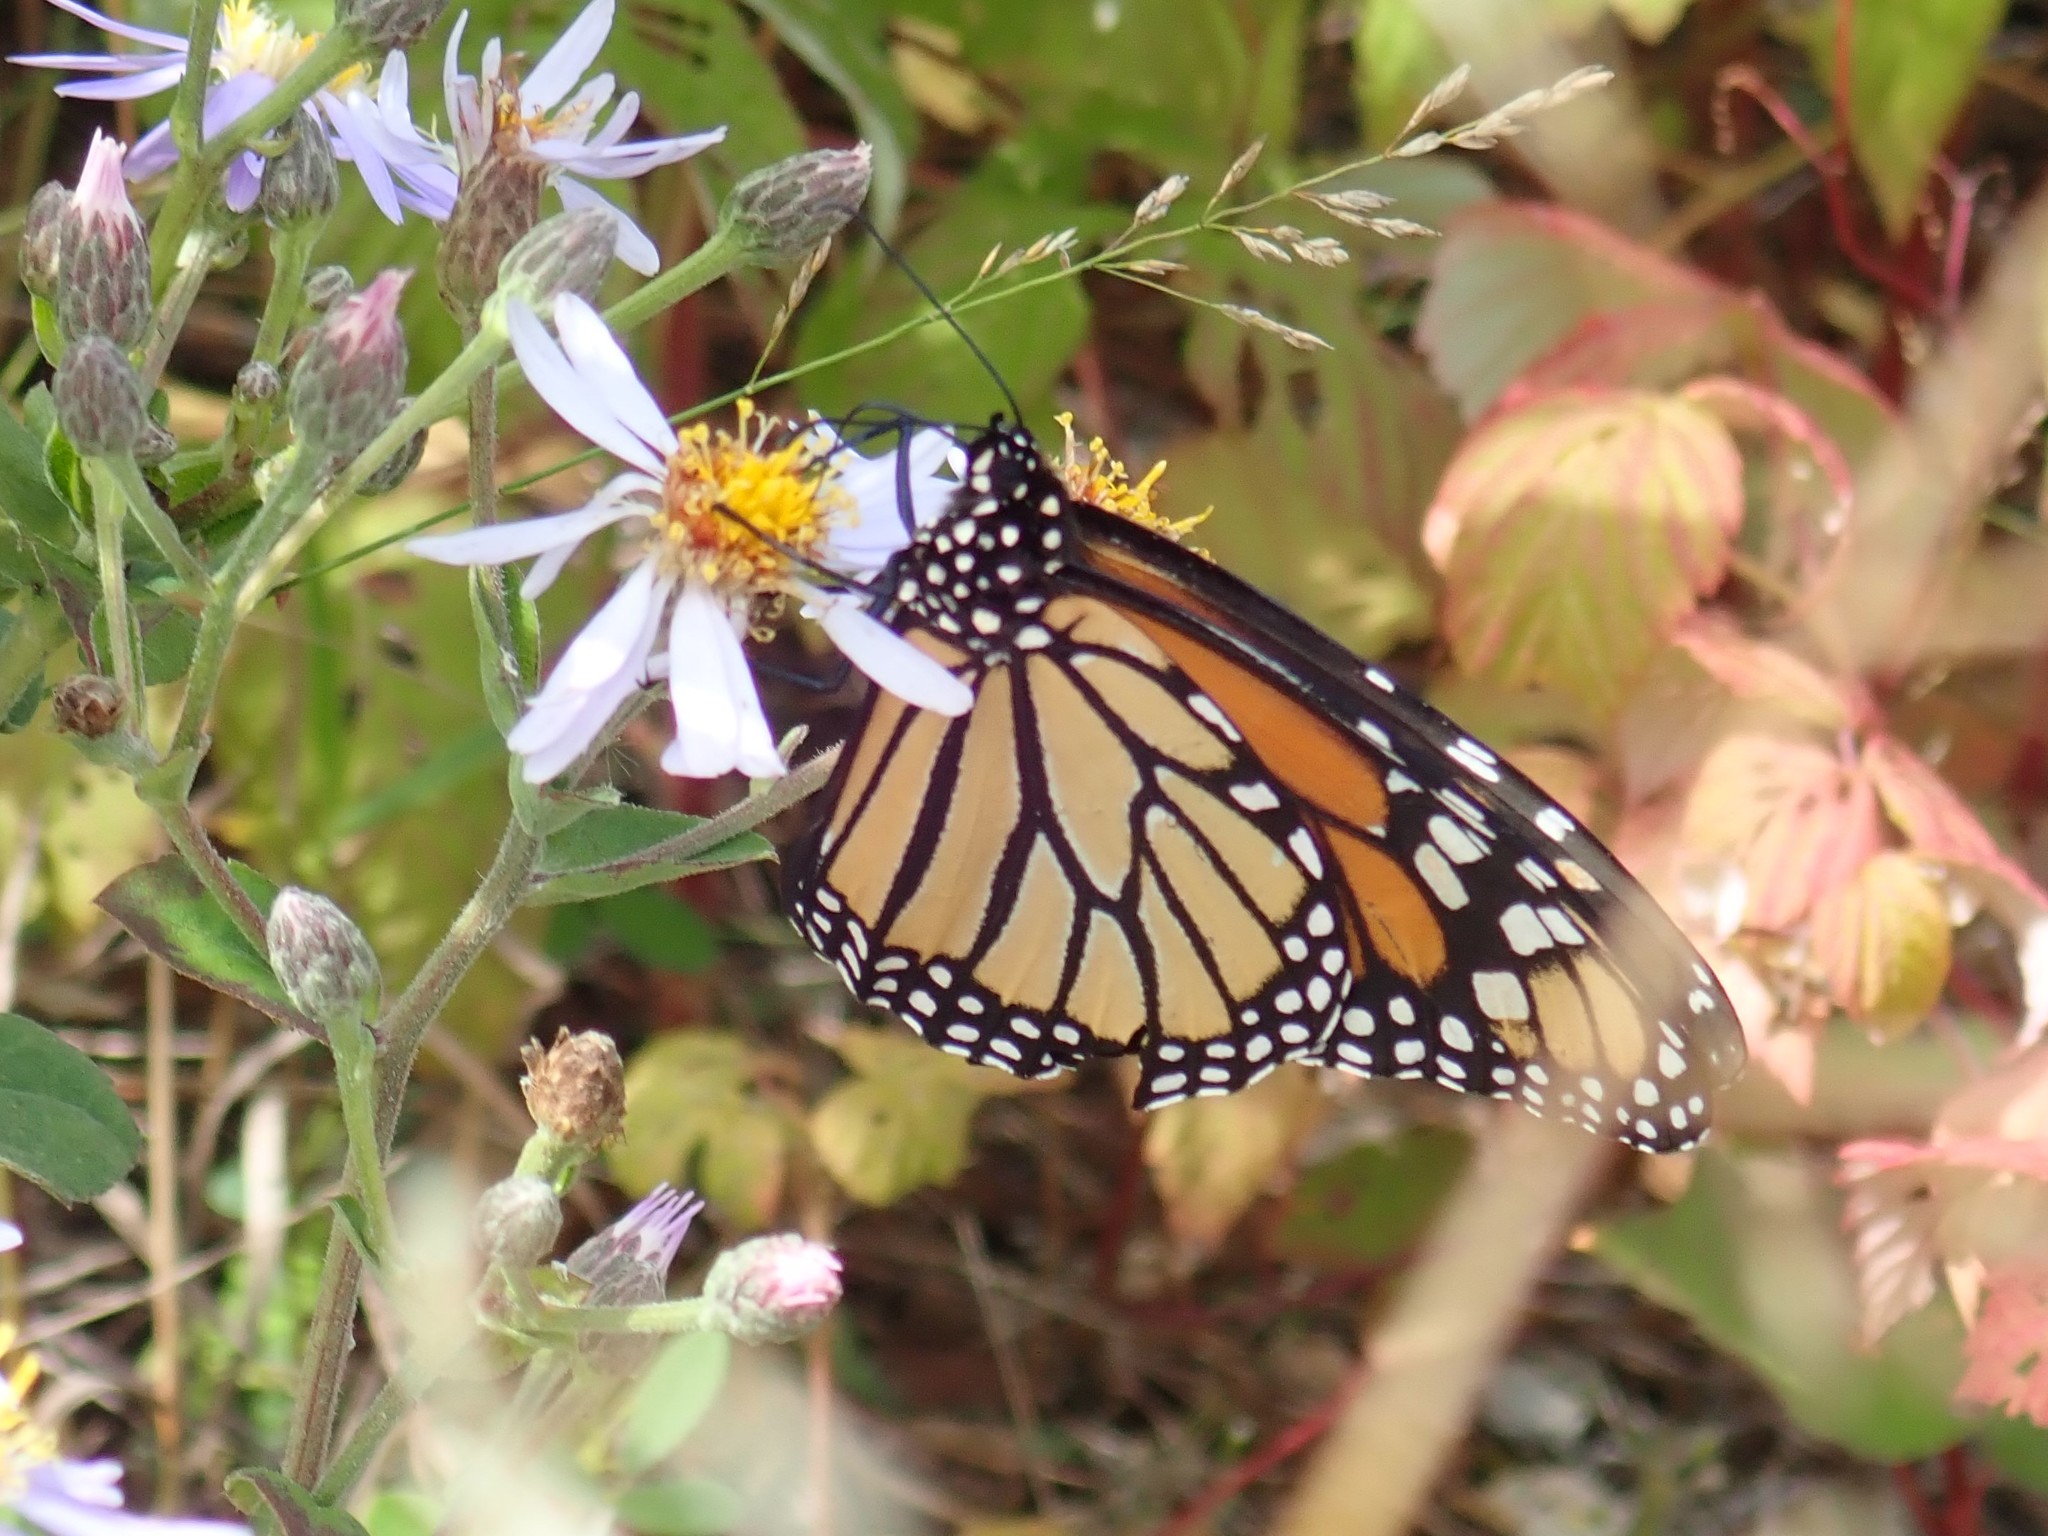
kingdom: Animalia
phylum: Arthropoda
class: Insecta
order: Lepidoptera
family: Nymphalidae
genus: Danaus
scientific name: Danaus plexippus
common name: Monarch
